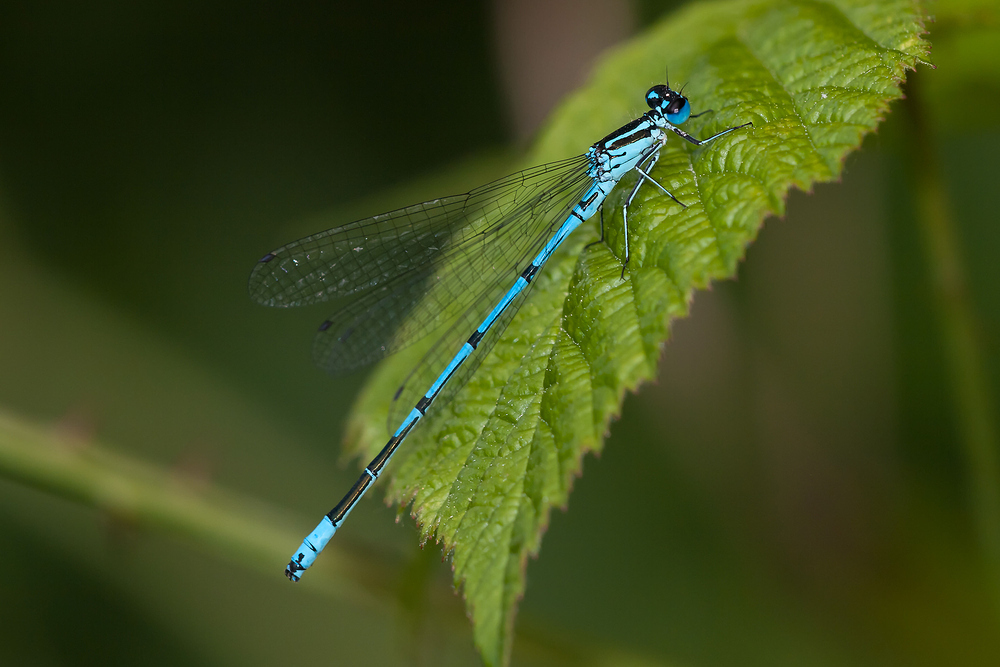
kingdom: Animalia
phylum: Arthropoda
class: Insecta
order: Odonata
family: Coenagrionidae
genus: Coenagrion
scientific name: Coenagrion puella
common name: Azure damselfly
